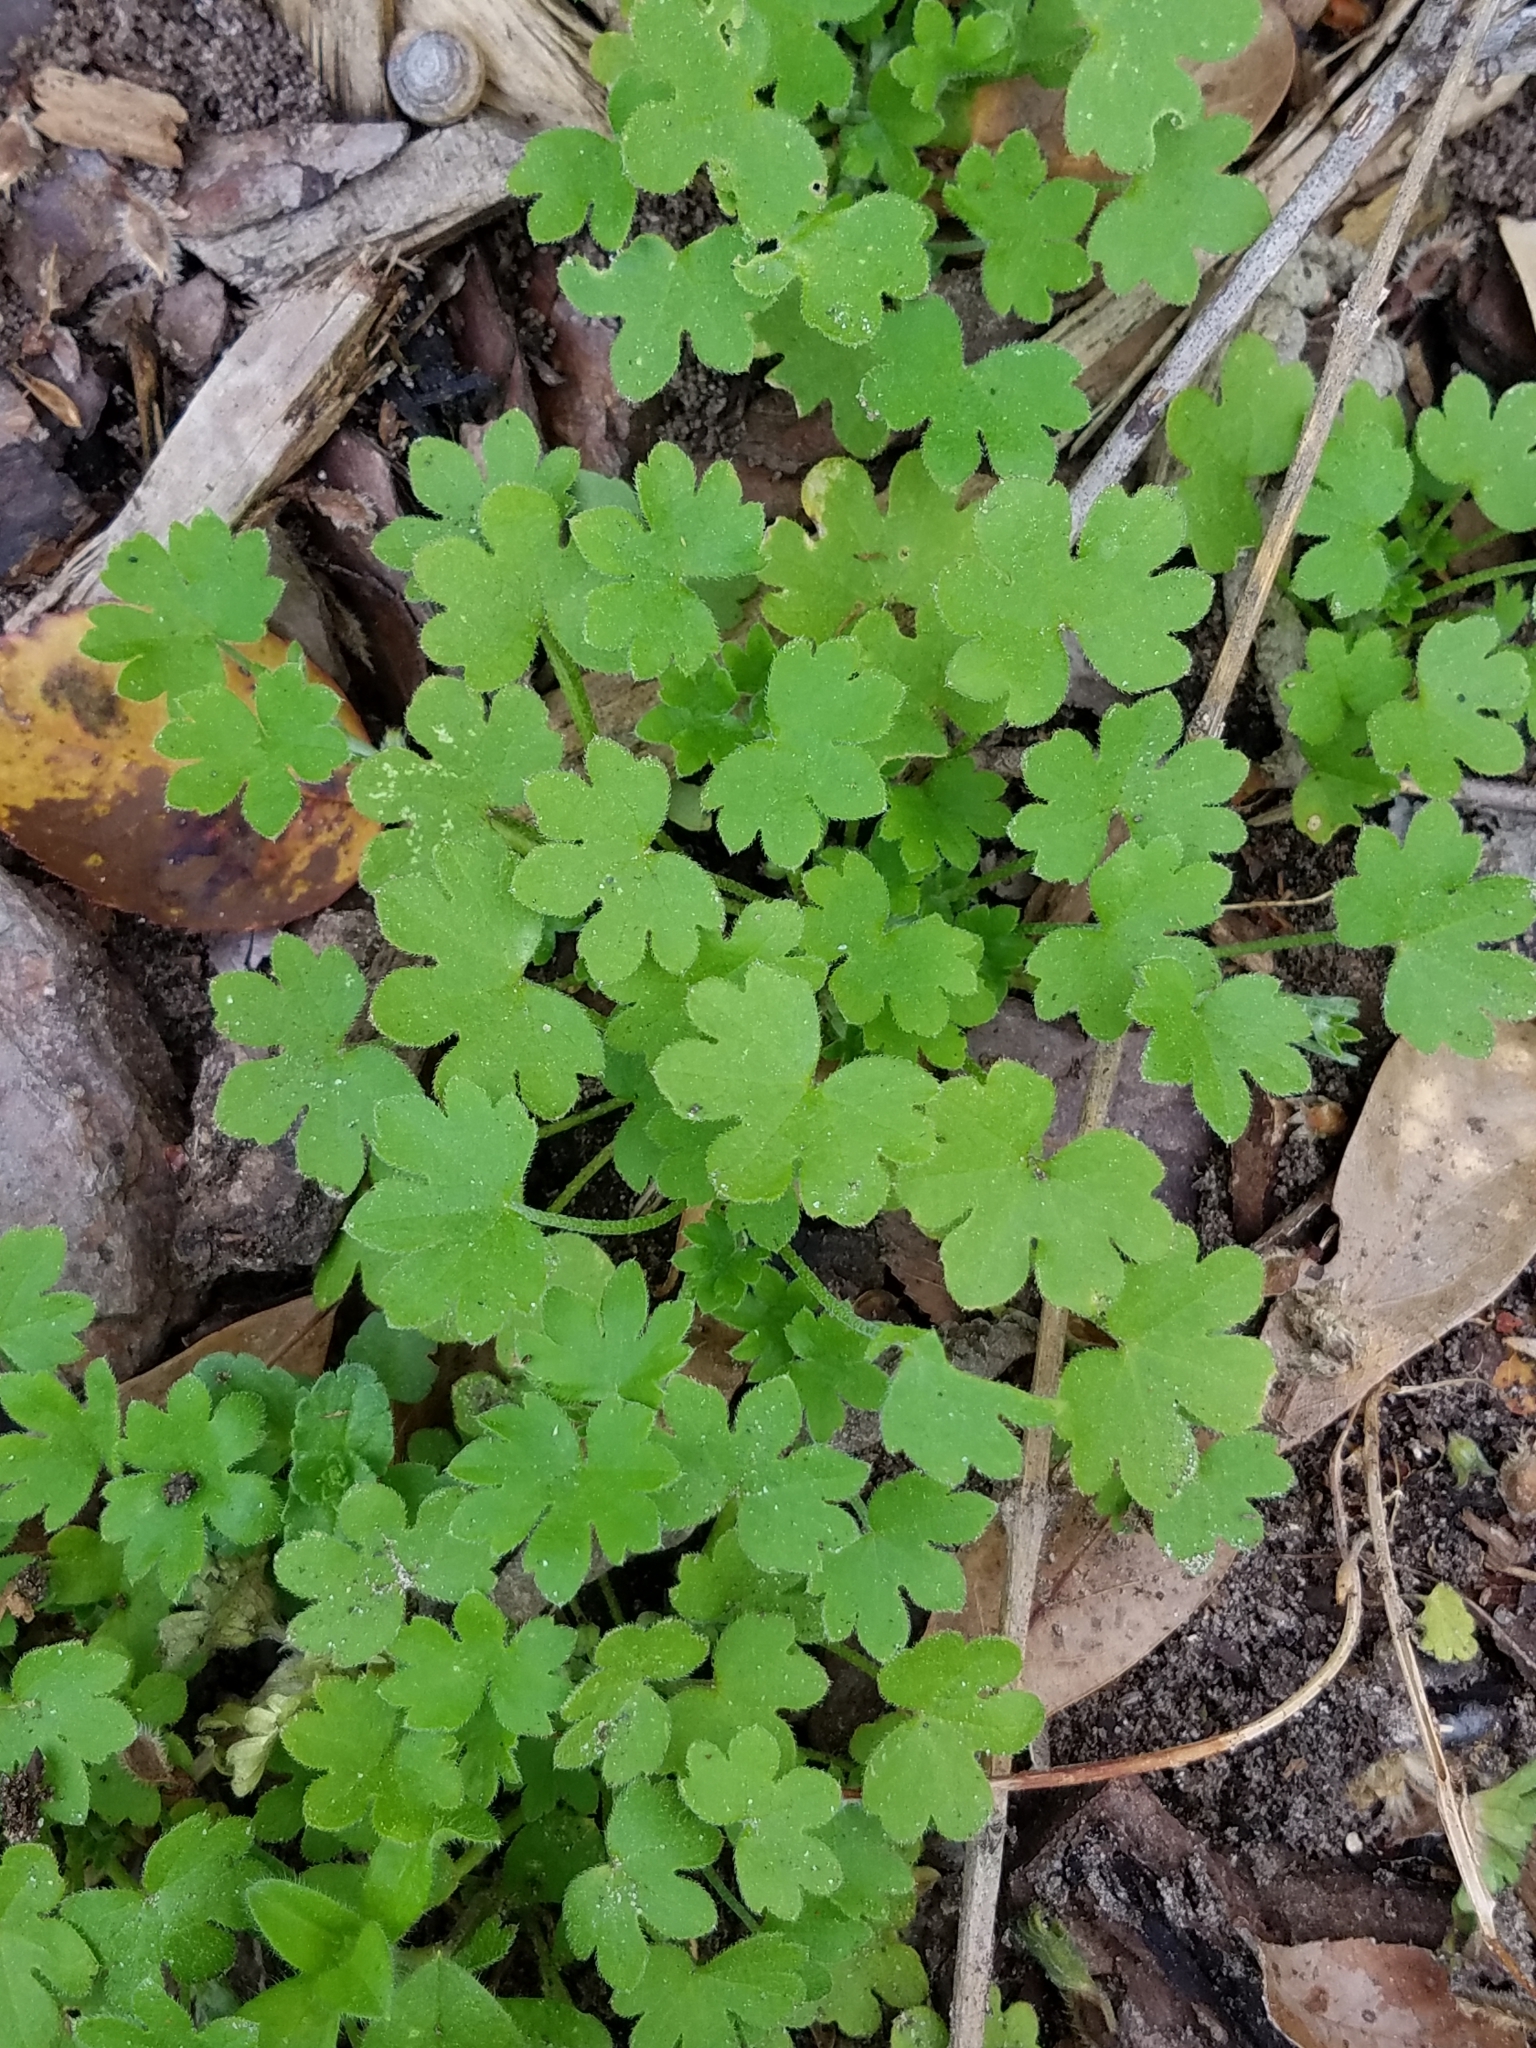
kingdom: Plantae
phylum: Tracheophyta
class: Magnoliopsida
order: Apiales
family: Apiaceae
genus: Bowlesia
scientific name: Bowlesia incana
